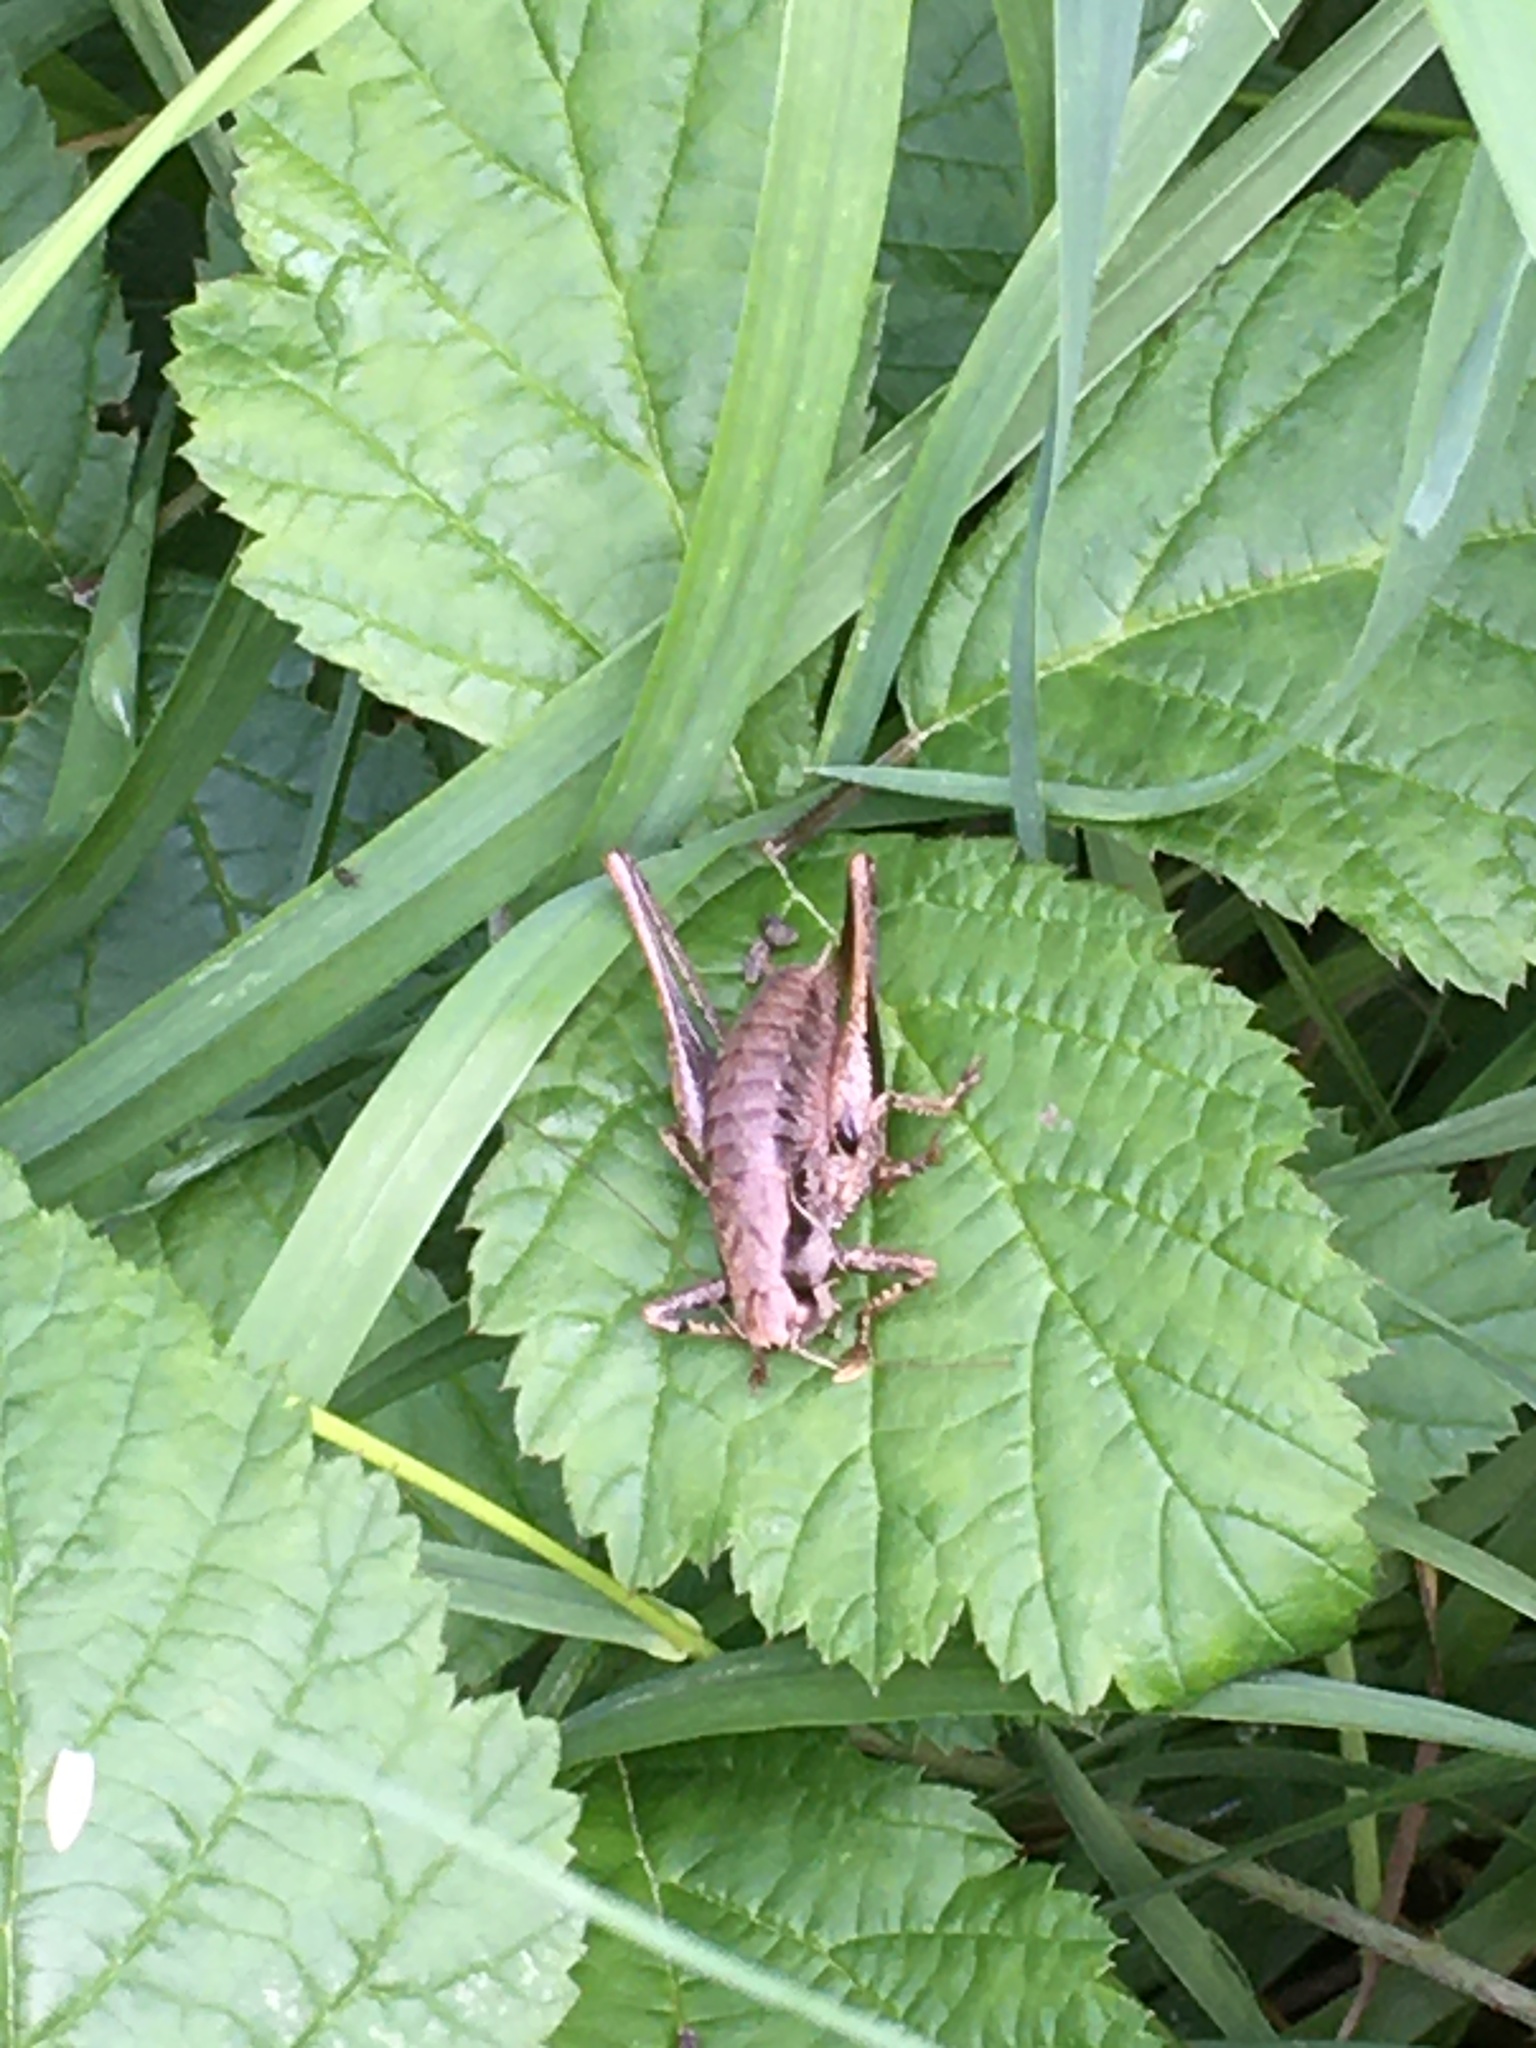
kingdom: Animalia
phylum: Arthropoda
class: Insecta
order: Orthoptera
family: Tettigoniidae
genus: Pholidoptera
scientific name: Pholidoptera griseoaptera
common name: Dark bush-cricket
